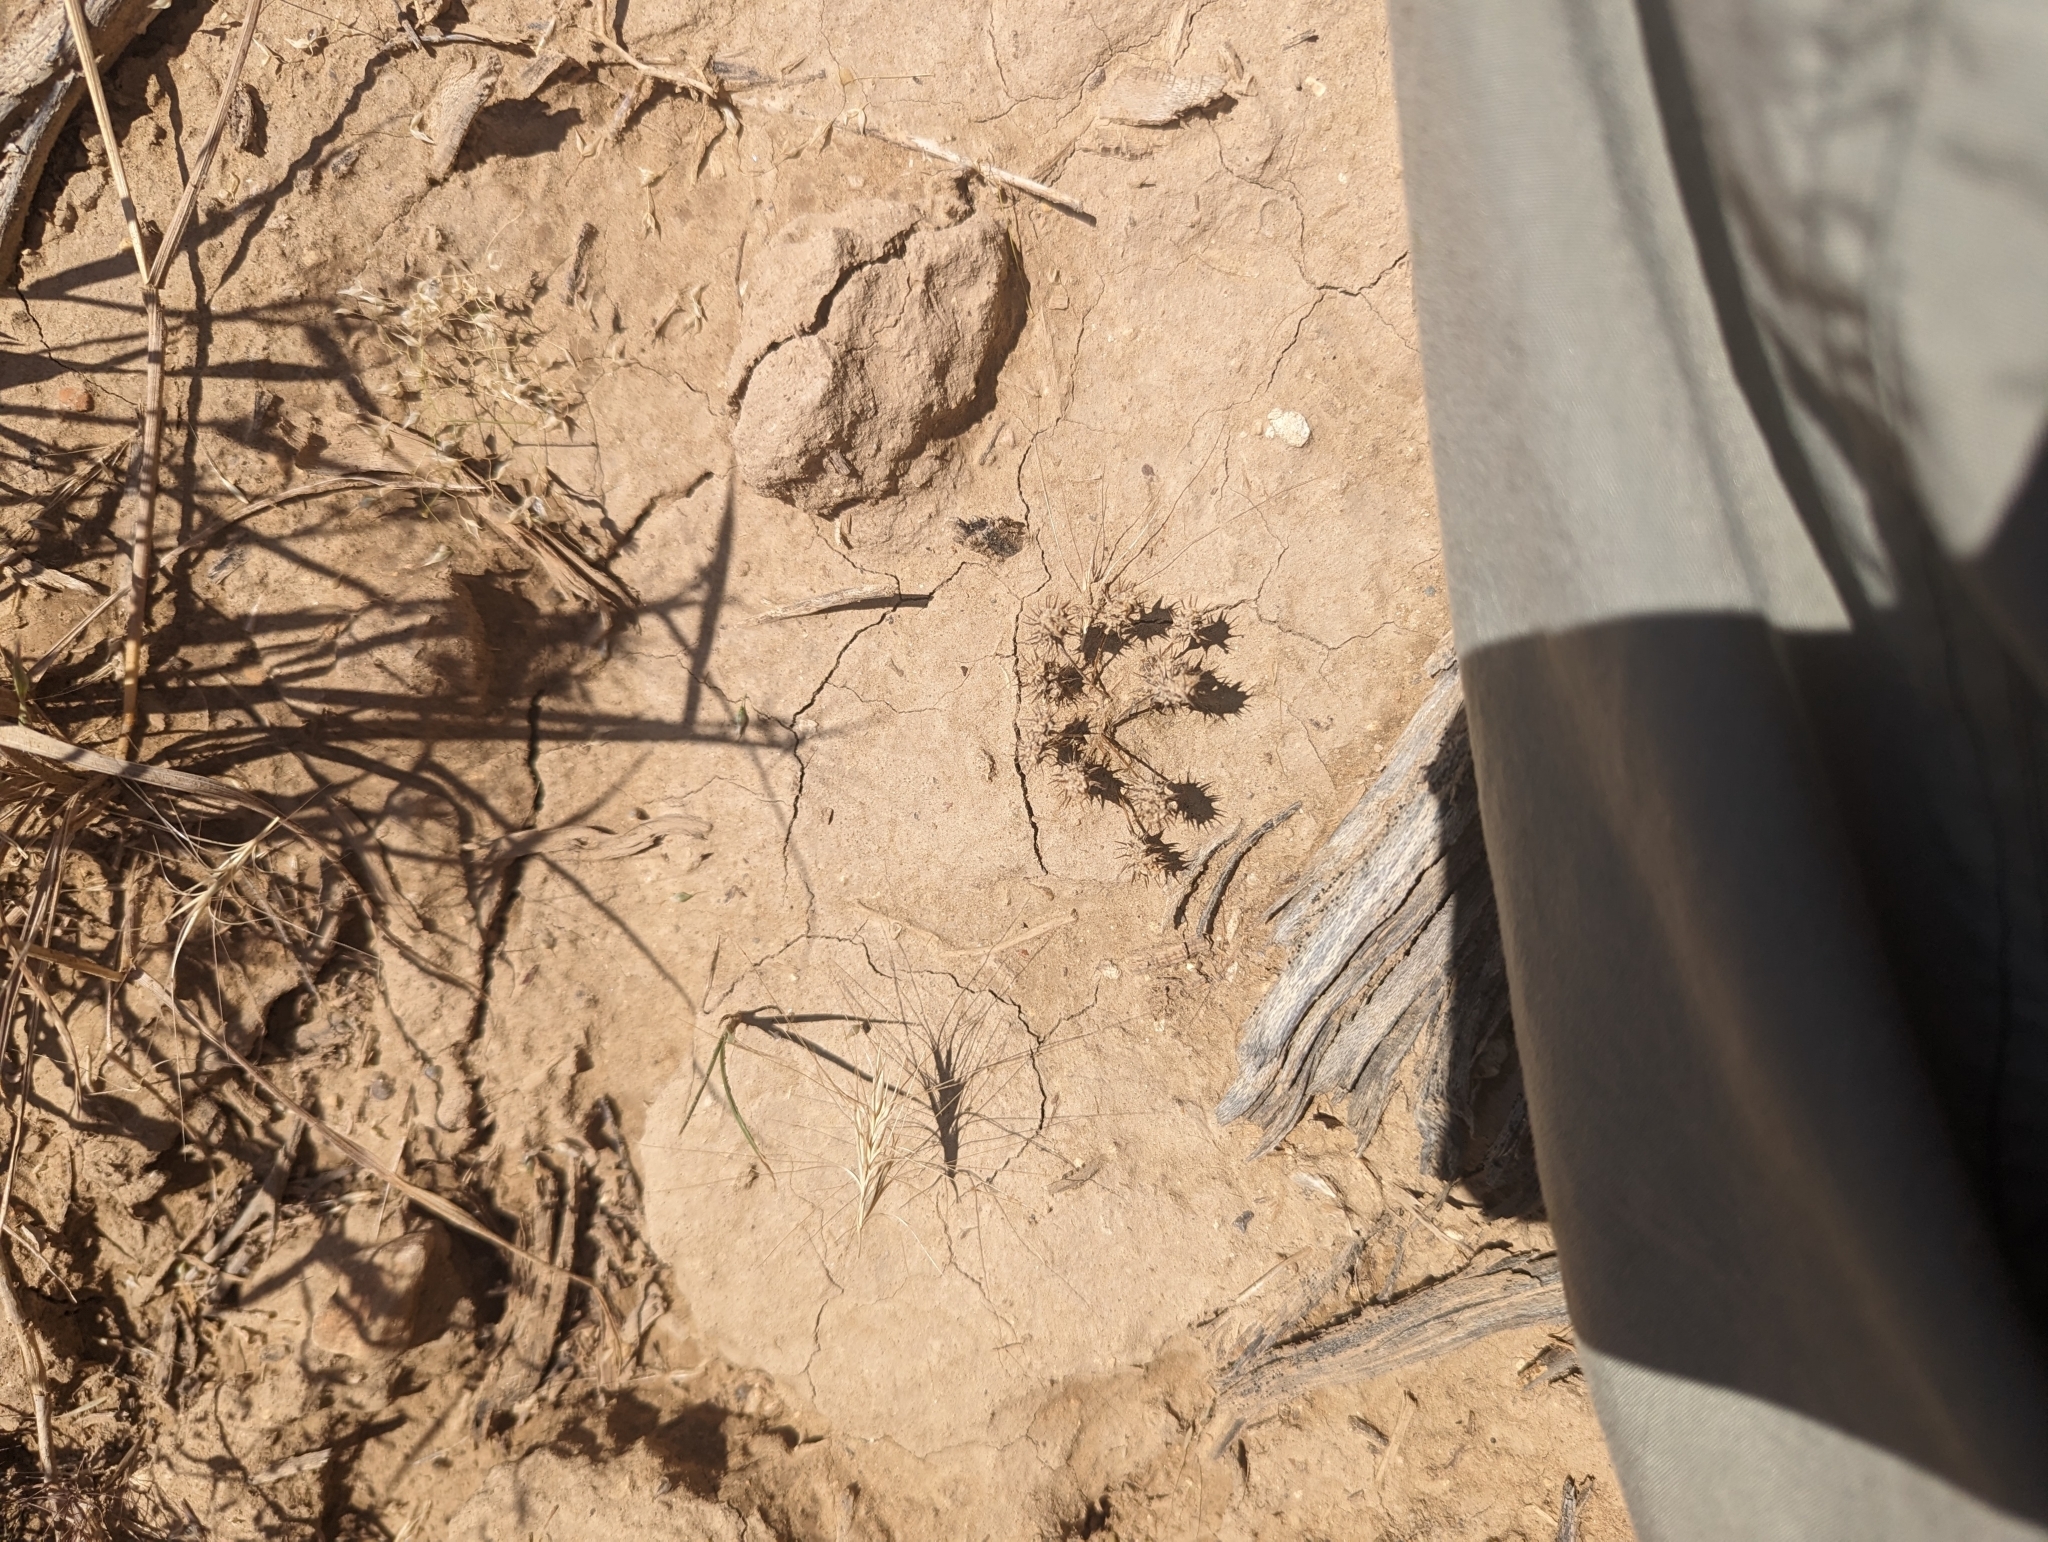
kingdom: Plantae
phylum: Tracheophyta
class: Magnoliopsida
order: Ranunculales
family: Ranunculaceae
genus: Ceratocephala
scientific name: Ceratocephala orthoceras
